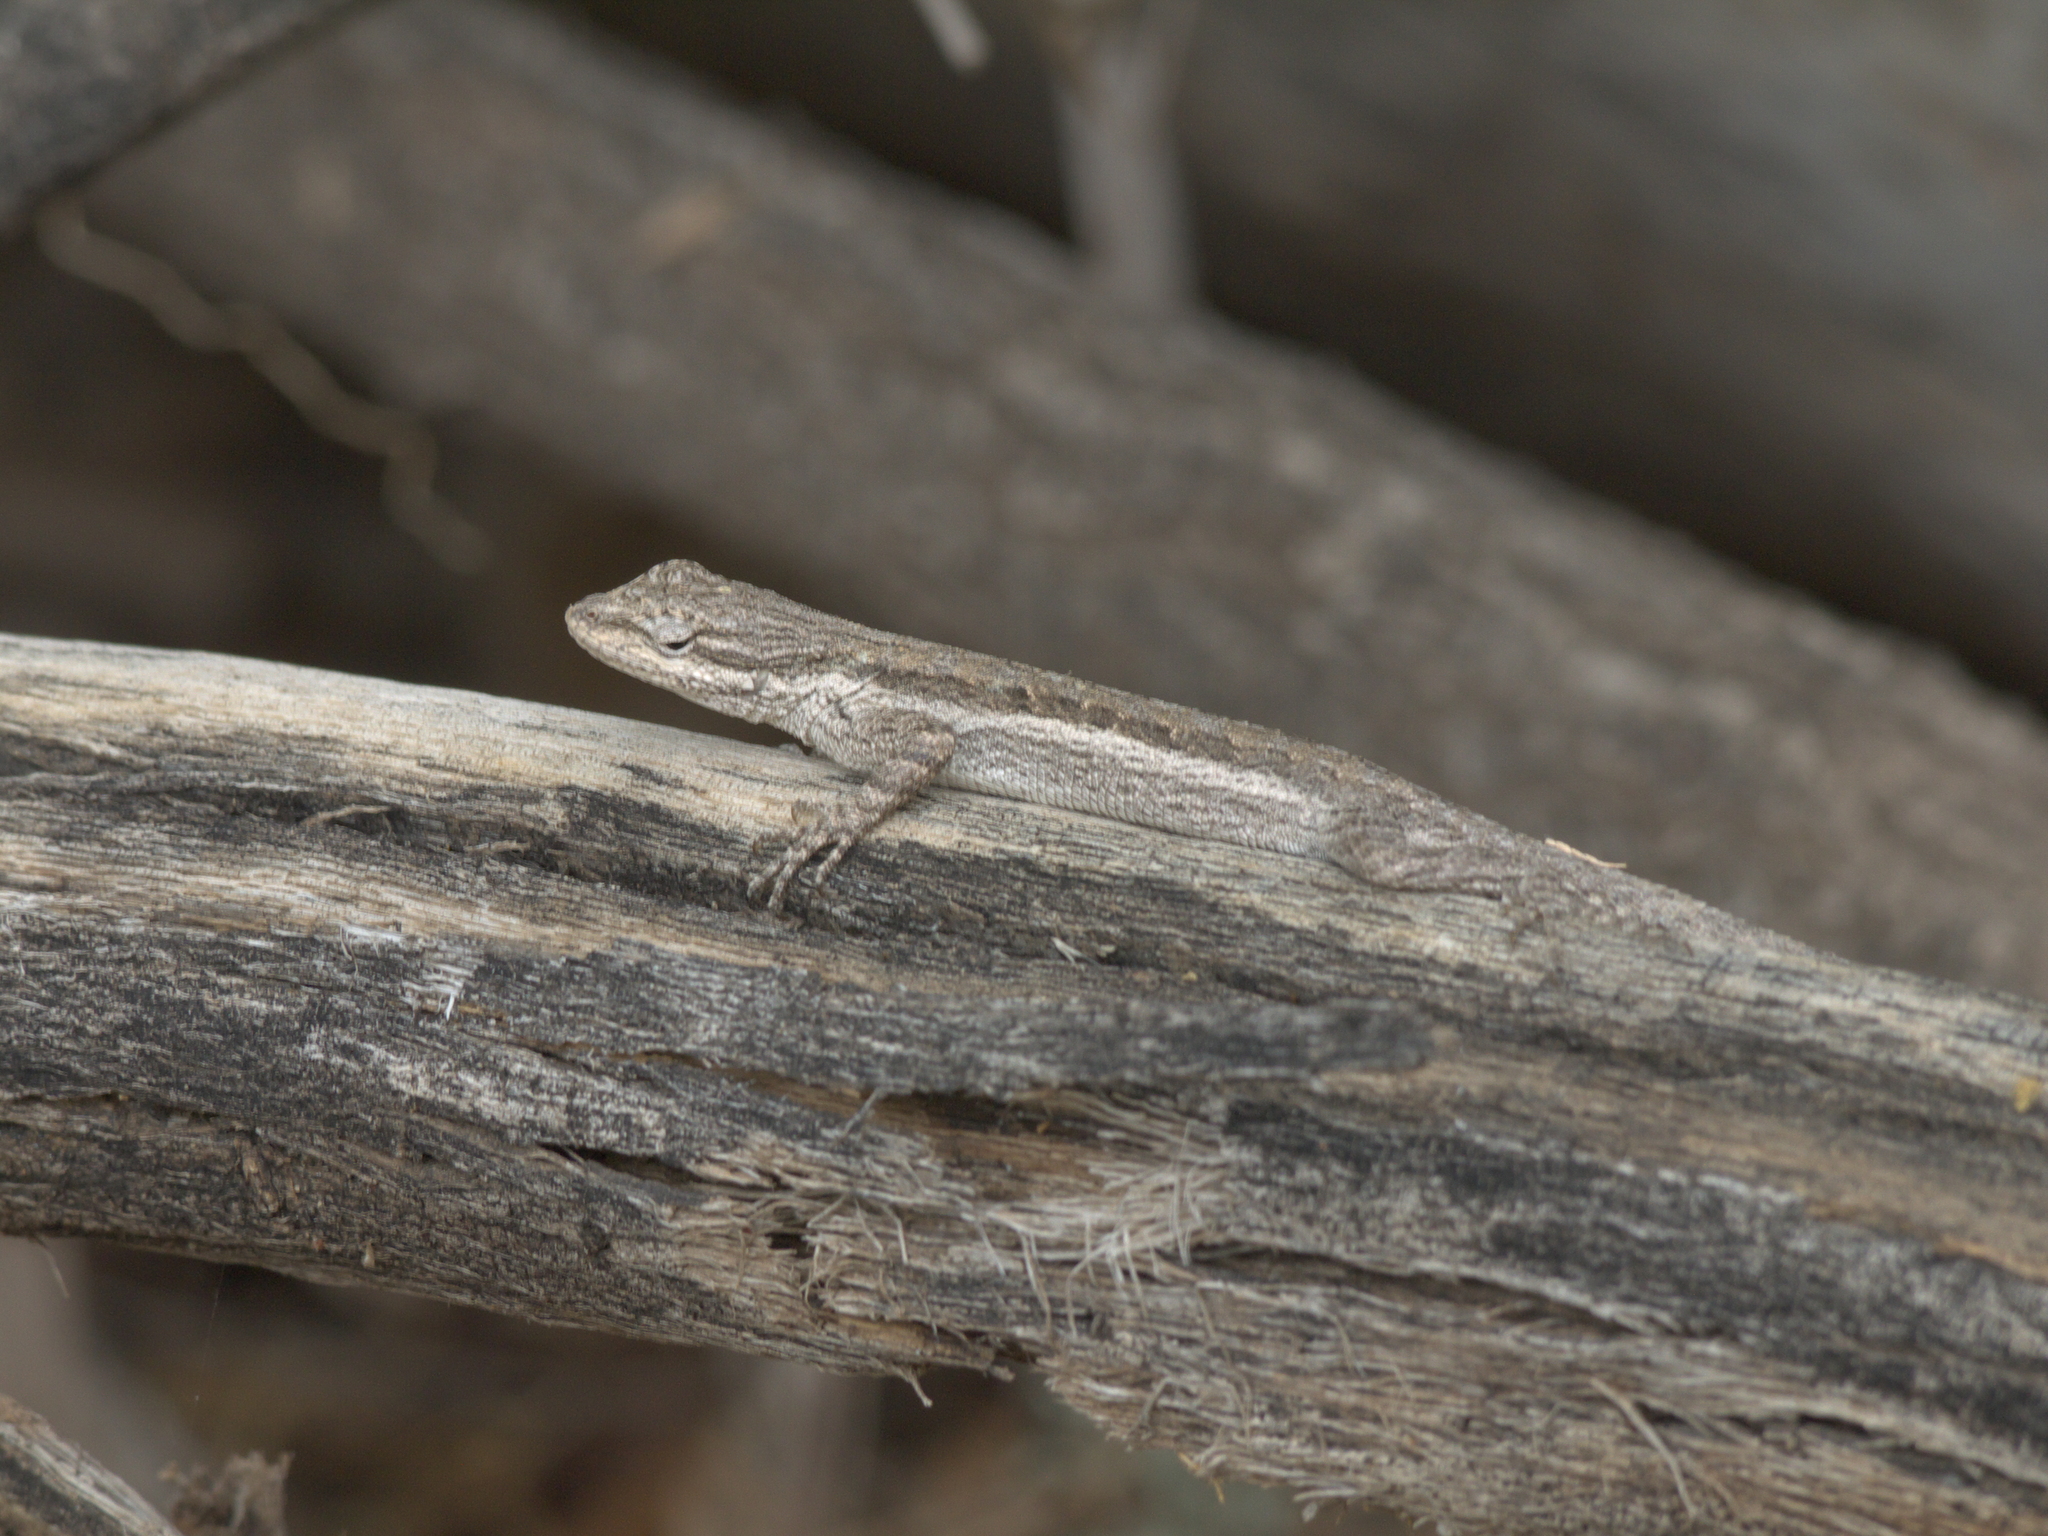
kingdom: Animalia
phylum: Chordata
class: Squamata
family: Phrynosomatidae
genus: Urosaurus
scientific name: Urosaurus graciosus
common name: Long-tailed brush lizard
